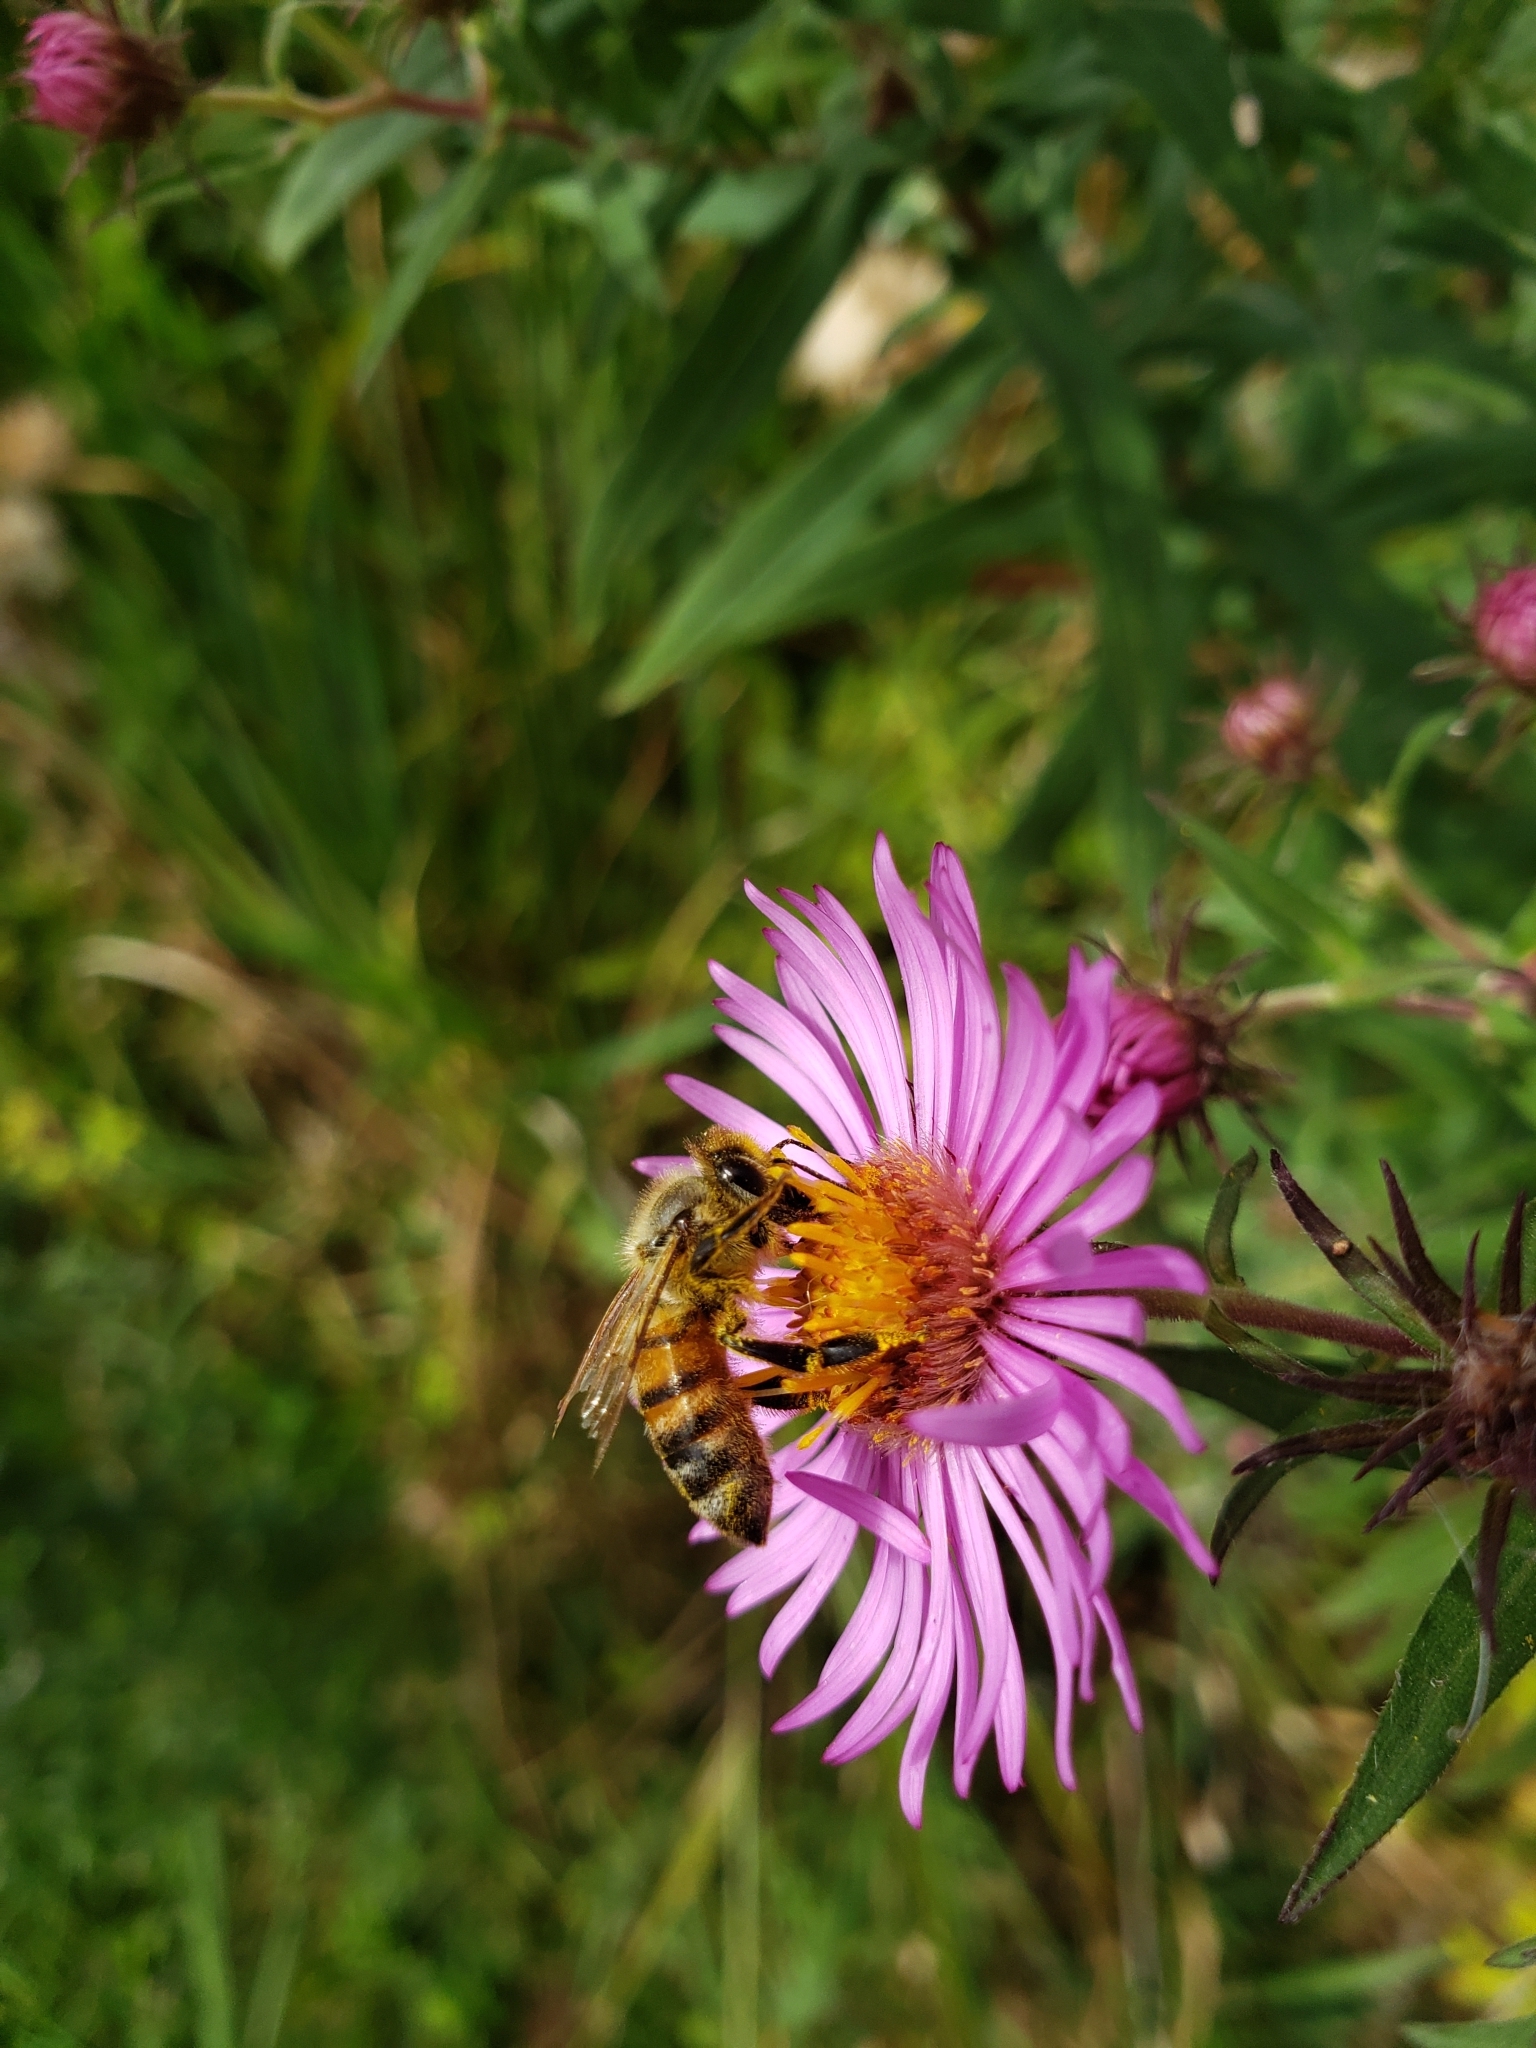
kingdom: Animalia
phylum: Arthropoda
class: Insecta
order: Hymenoptera
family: Apidae
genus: Apis
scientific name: Apis mellifera
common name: Honey bee
